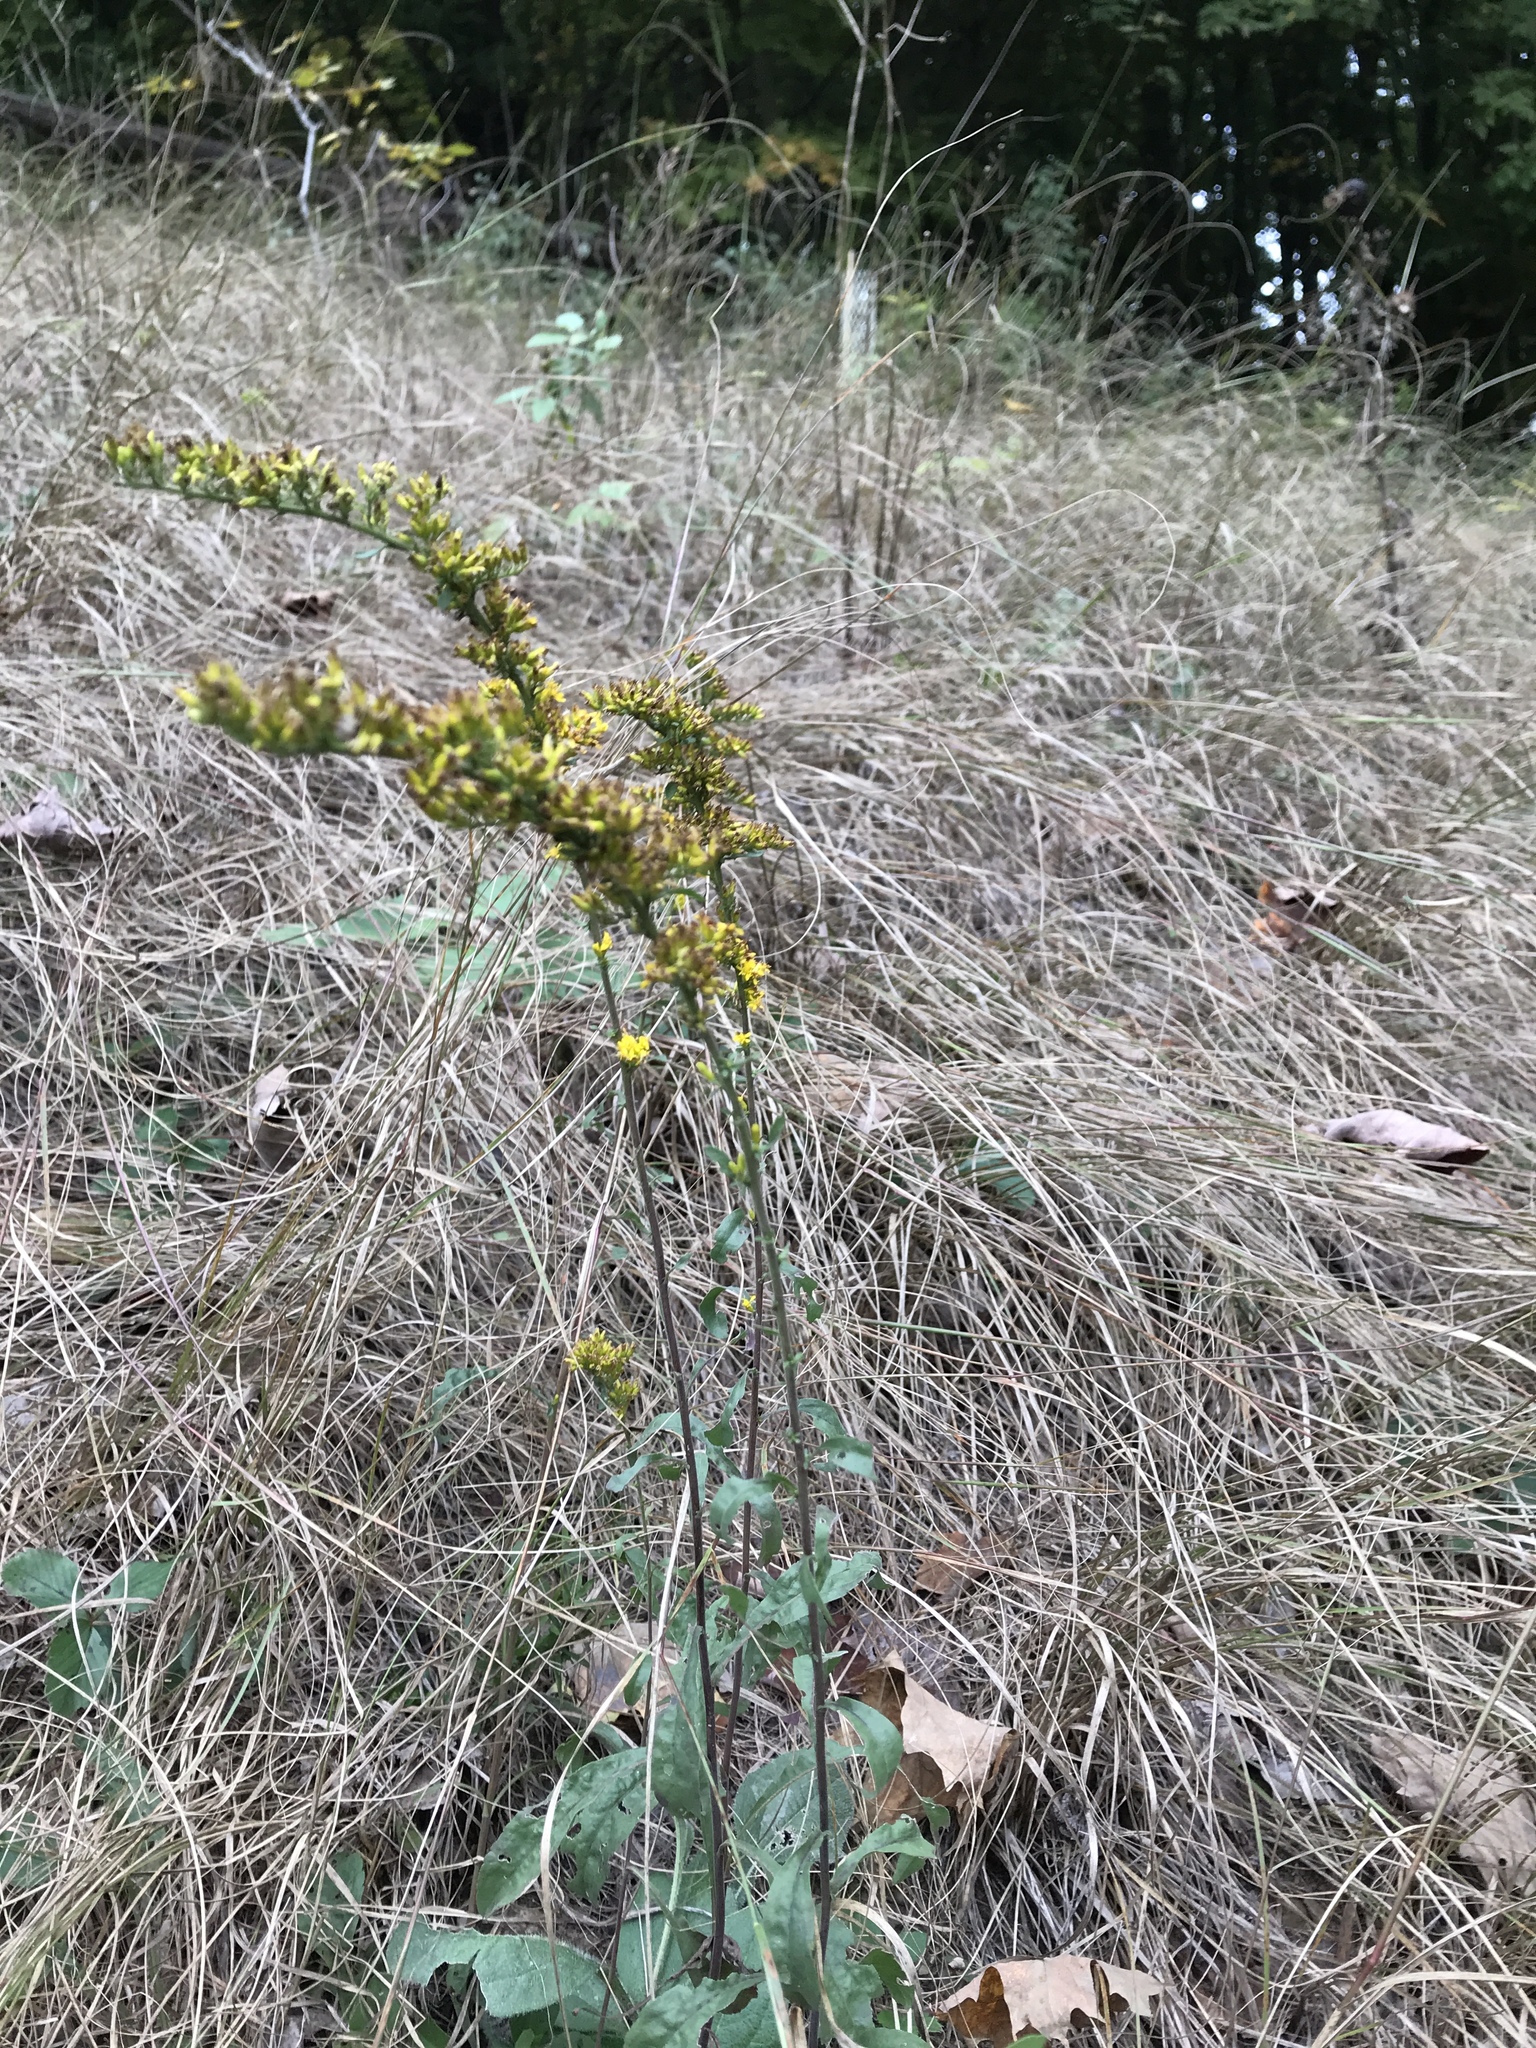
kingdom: Plantae
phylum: Tracheophyta
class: Magnoliopsida
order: Asterales
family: Asteraceae
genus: Solidago
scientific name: Solidago nemoralis
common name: Grey goldenrod
